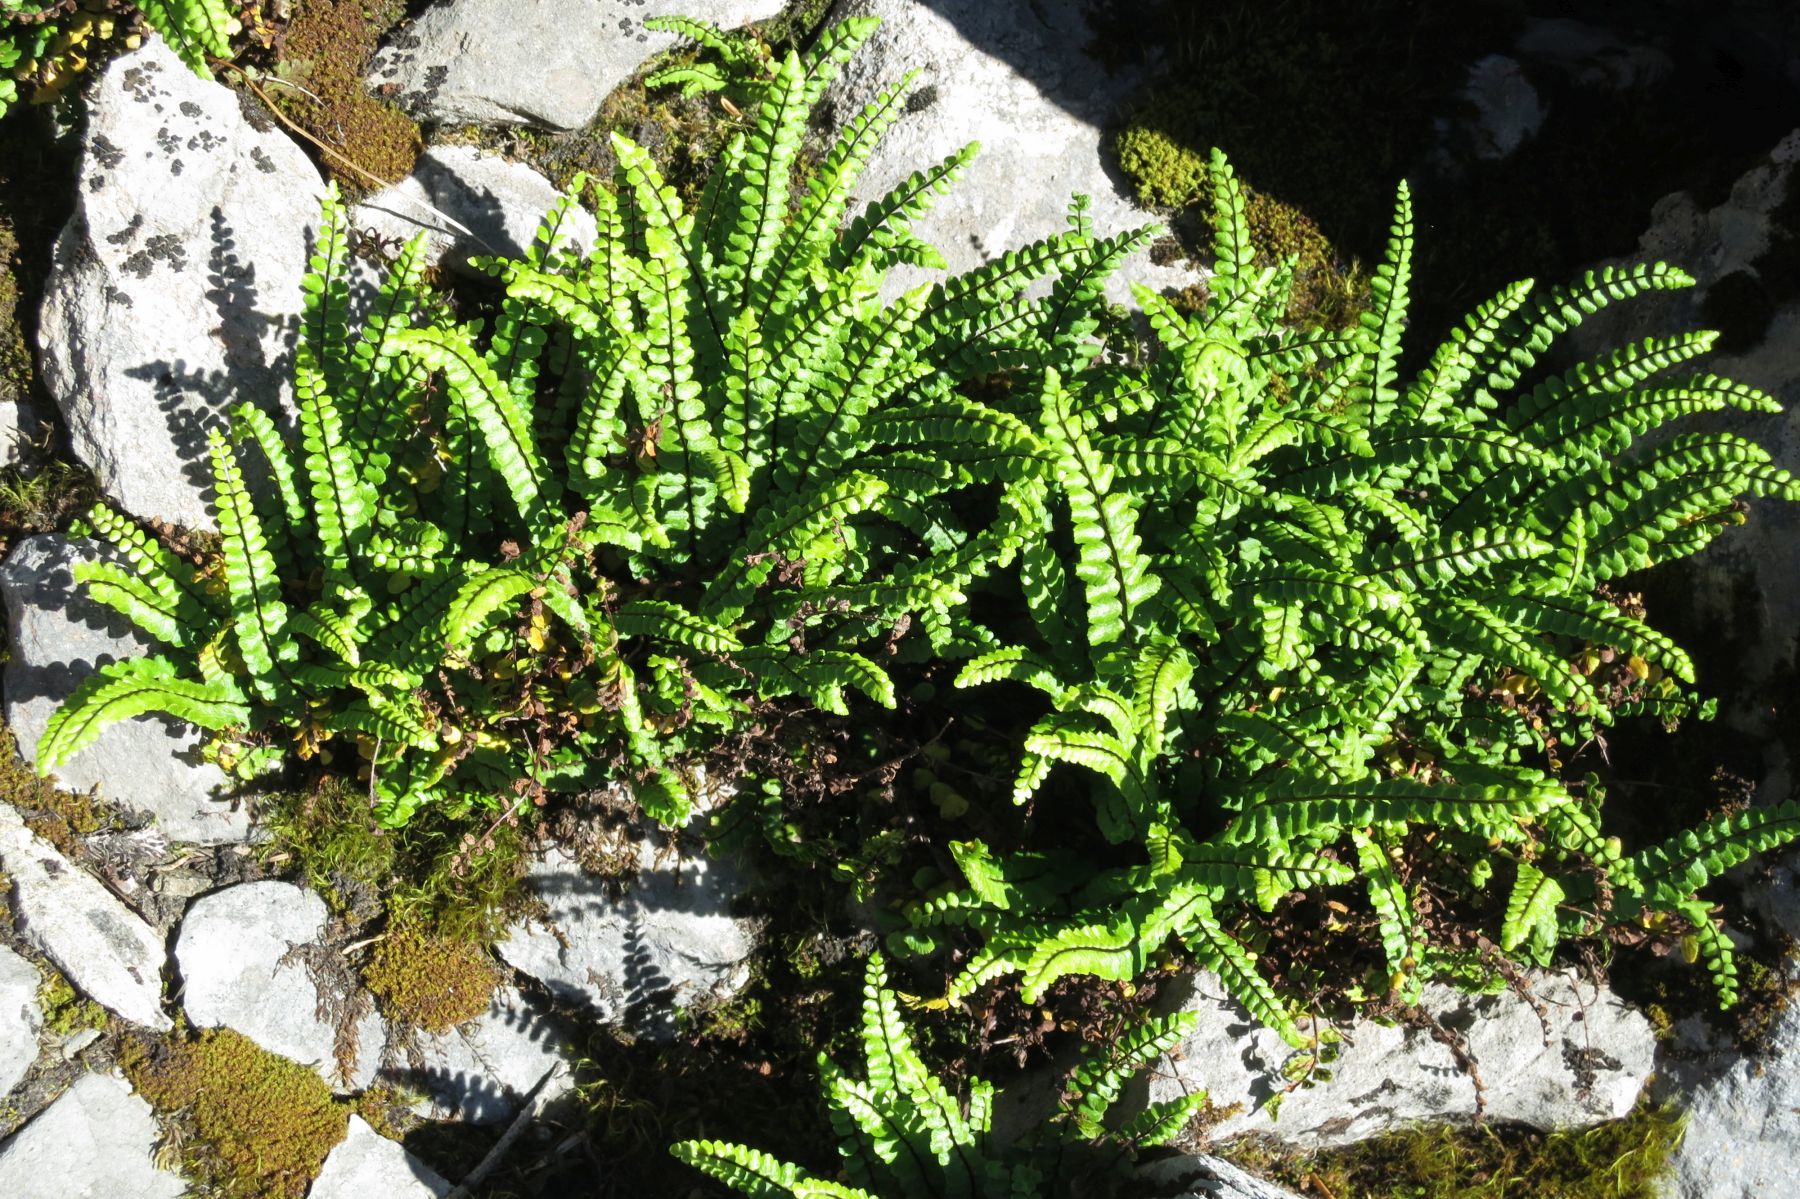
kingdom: Plantae
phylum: Tracheophyta
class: Polypodiopsida
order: Polypodiales
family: Aspleniaceae
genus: Asplenium
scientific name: Asplenium quadrivalens
